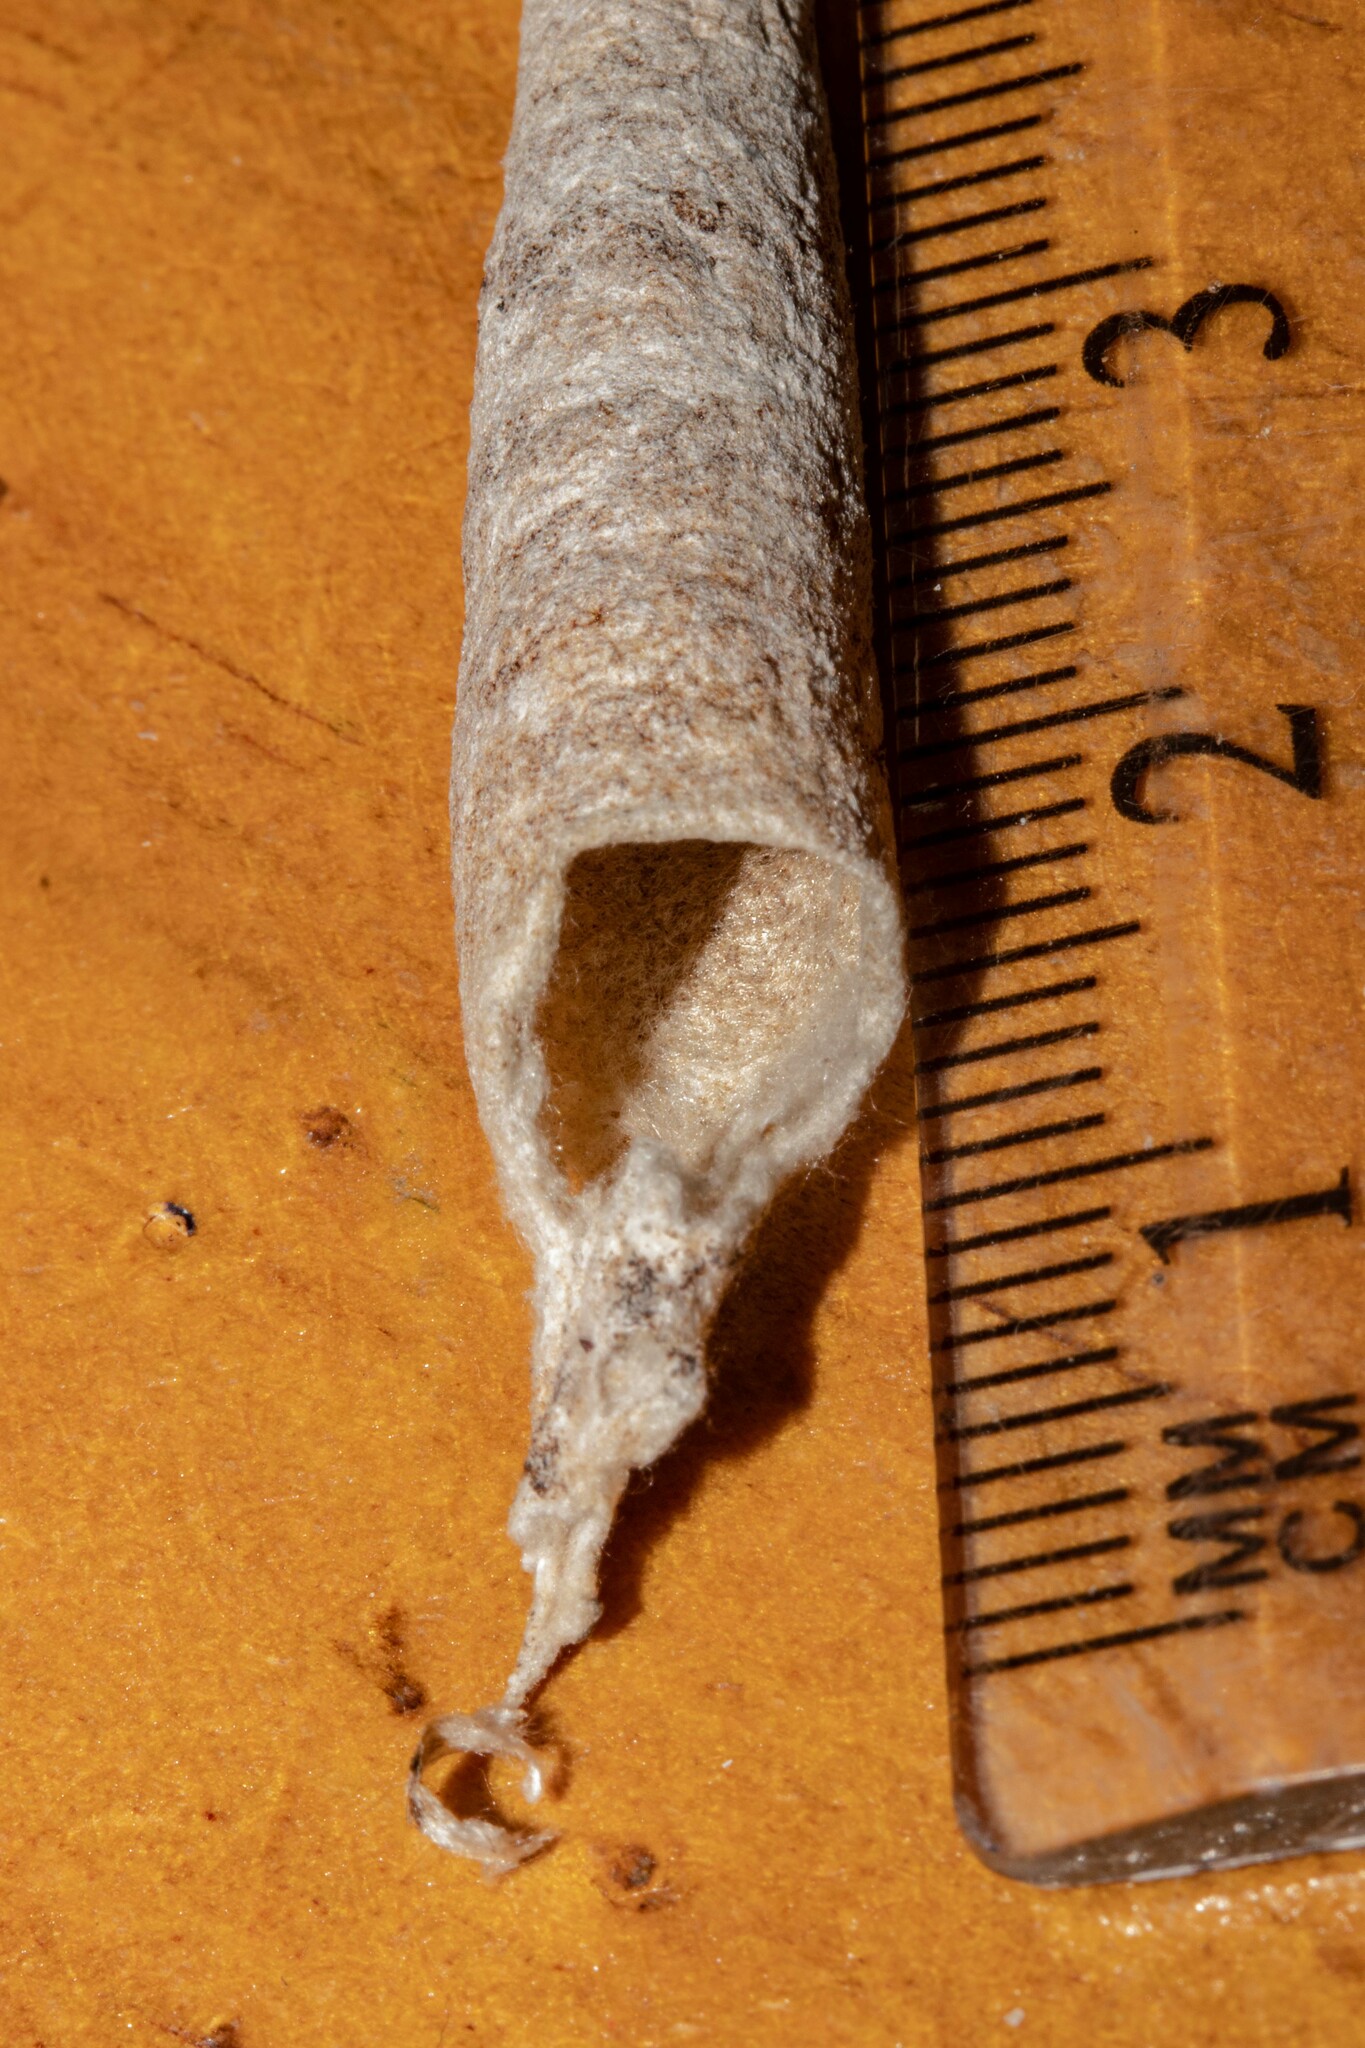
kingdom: Animalia
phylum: Arthropoda
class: Insecta
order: Lepidoptera
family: Psychidae
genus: Liothula
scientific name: Liothula omnivora
